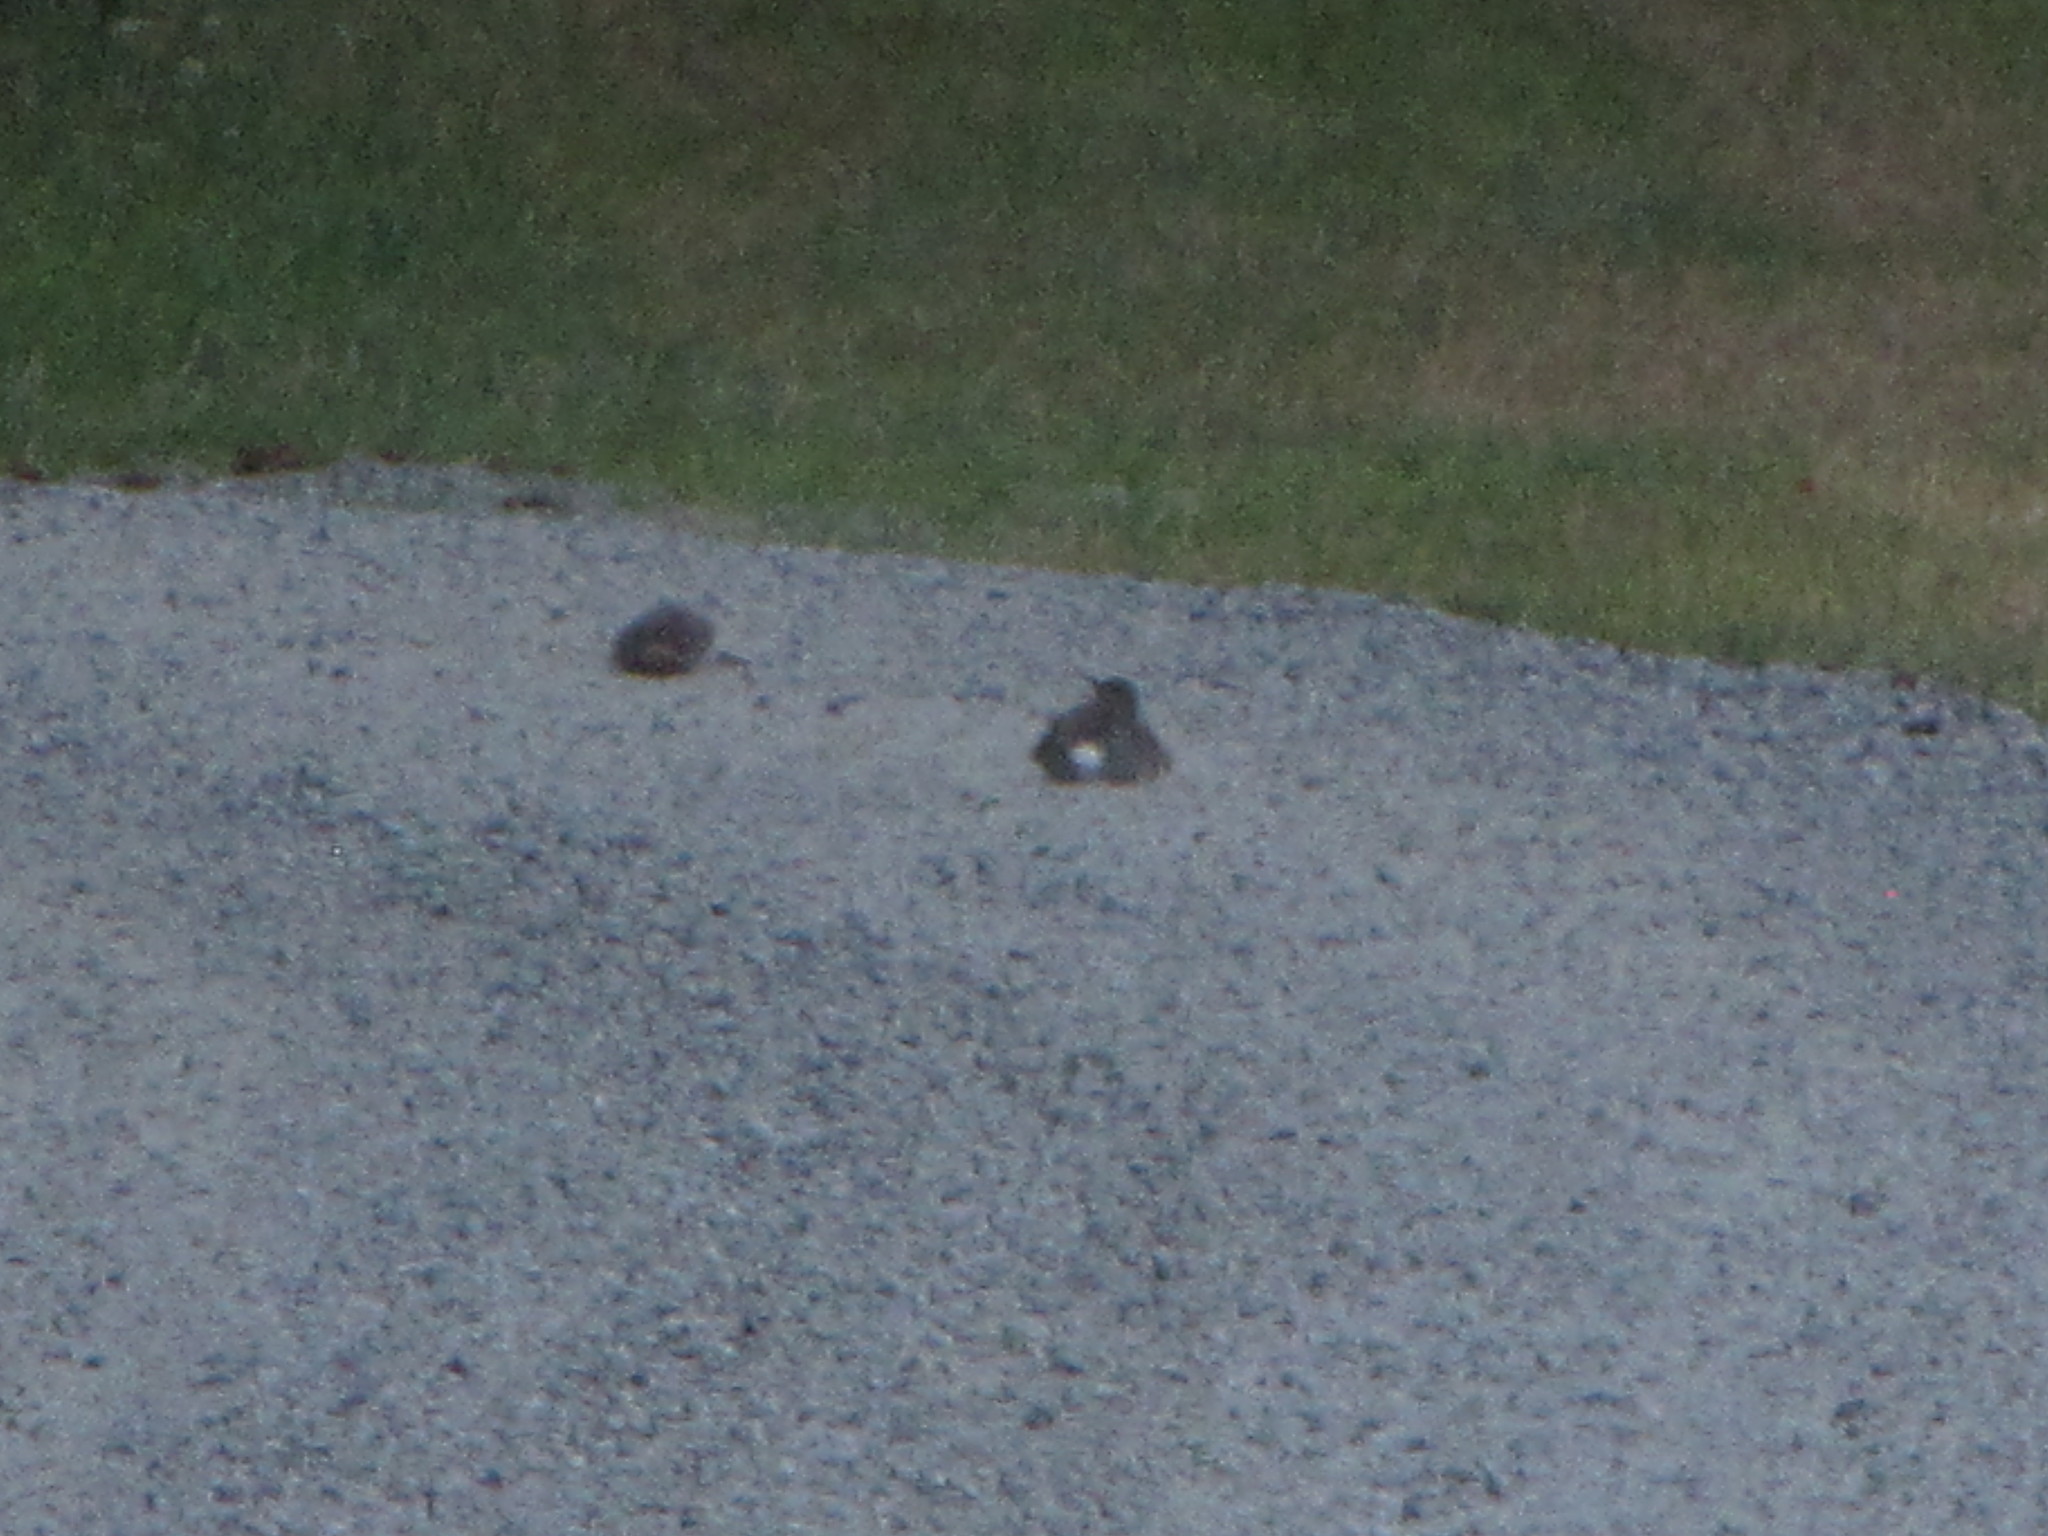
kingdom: Animalia
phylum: Chordata
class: Aves
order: Piciformes
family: Picidae
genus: Colaptes
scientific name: Colaptes auratus
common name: Northern flicker
